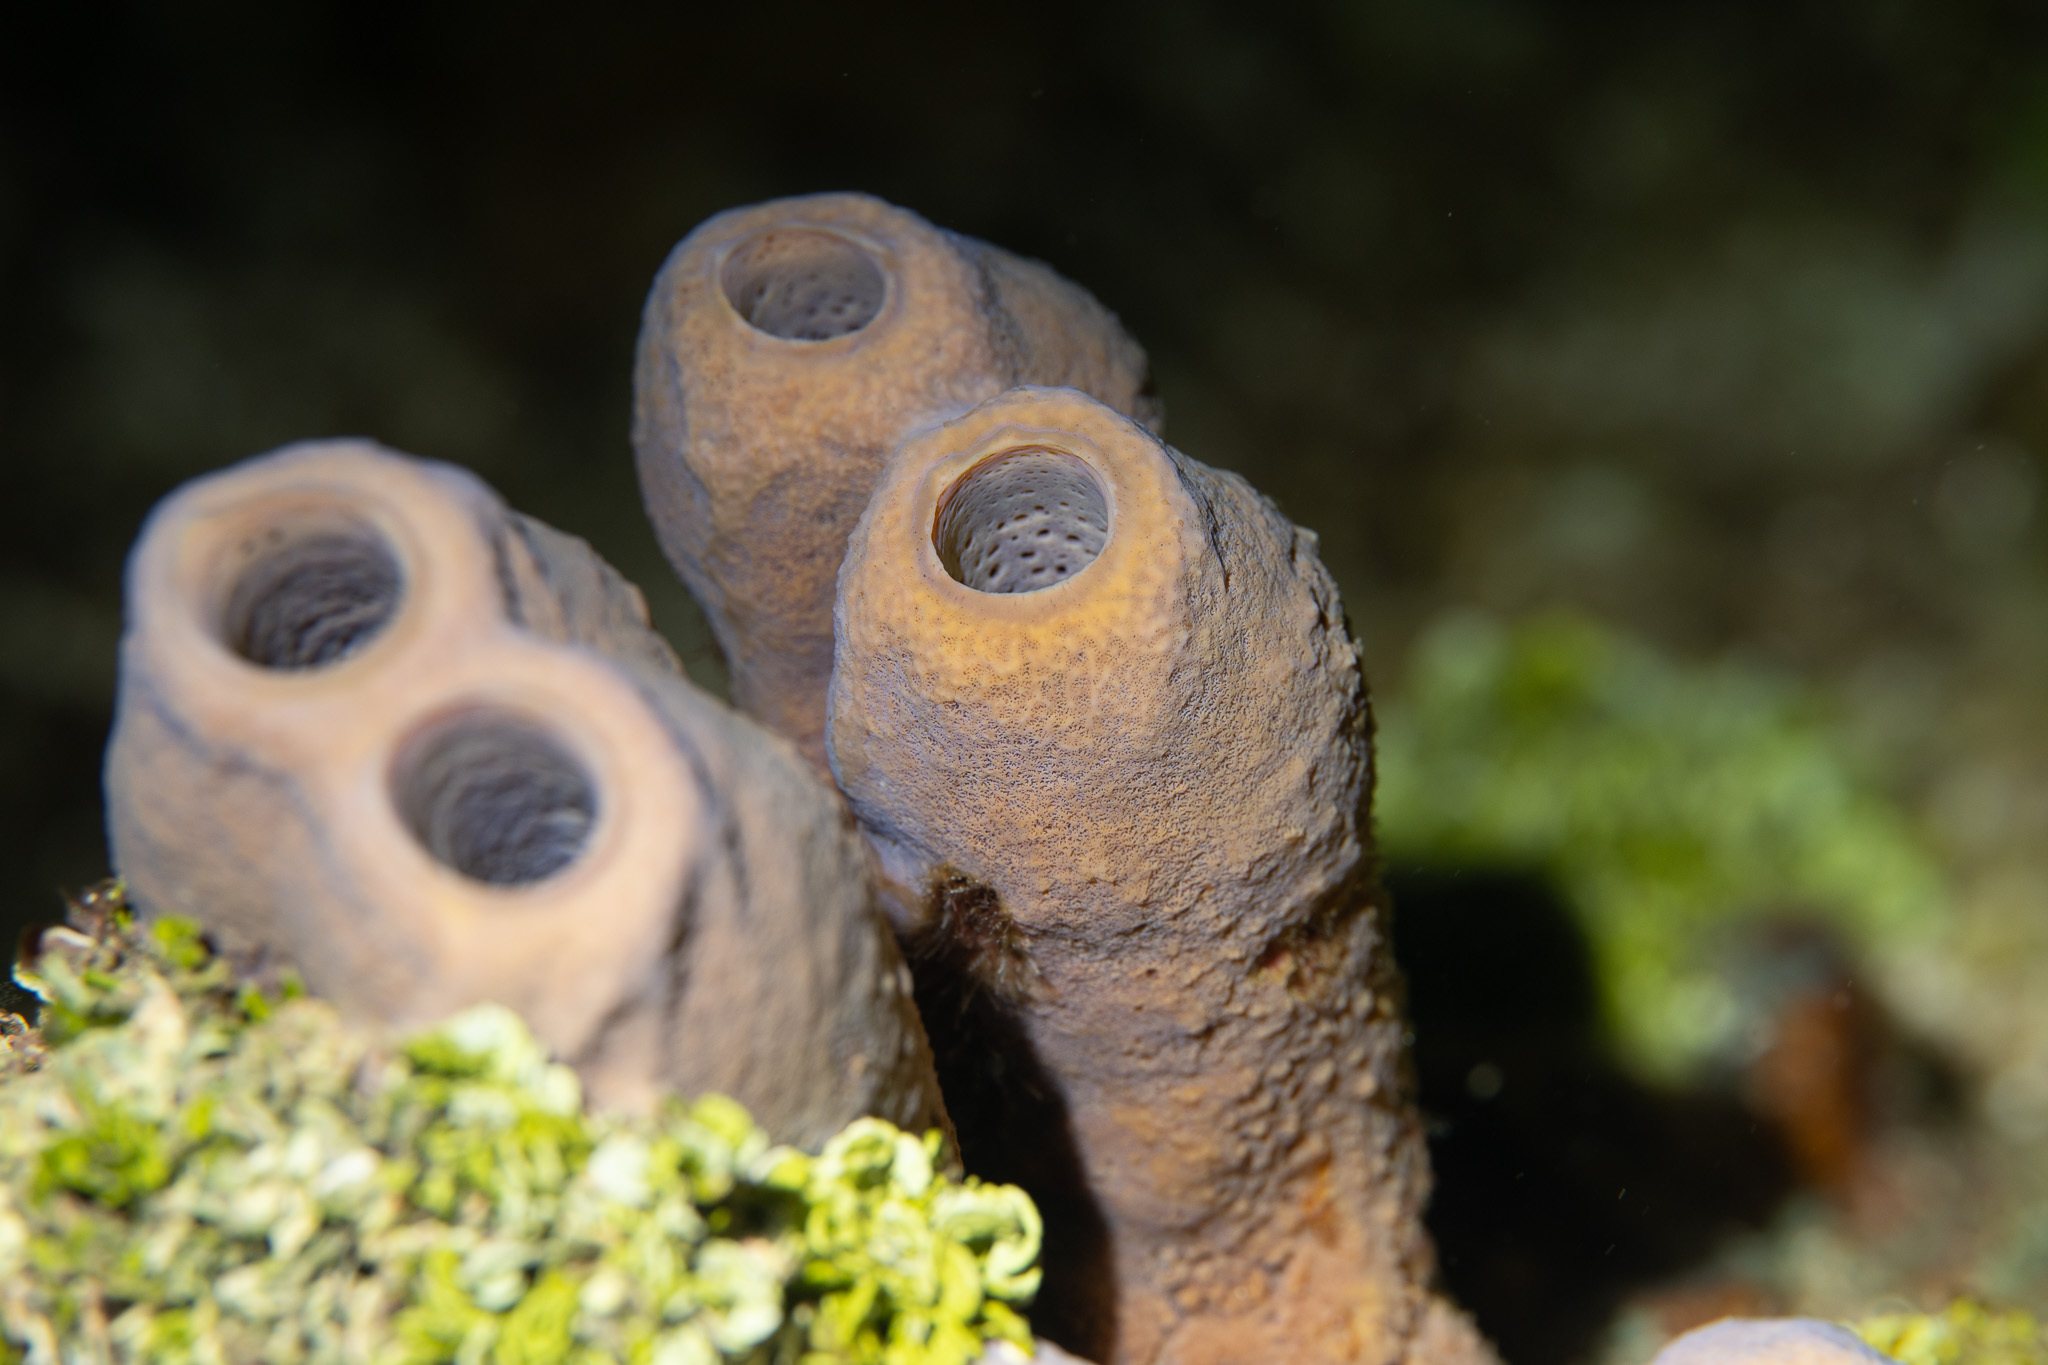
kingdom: Animalia
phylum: Porifera
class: Demospongiae
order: Verongiida
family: Aplysinidae
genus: Aplysina
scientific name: Aplysina archeri
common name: Stove-pipe sponge
